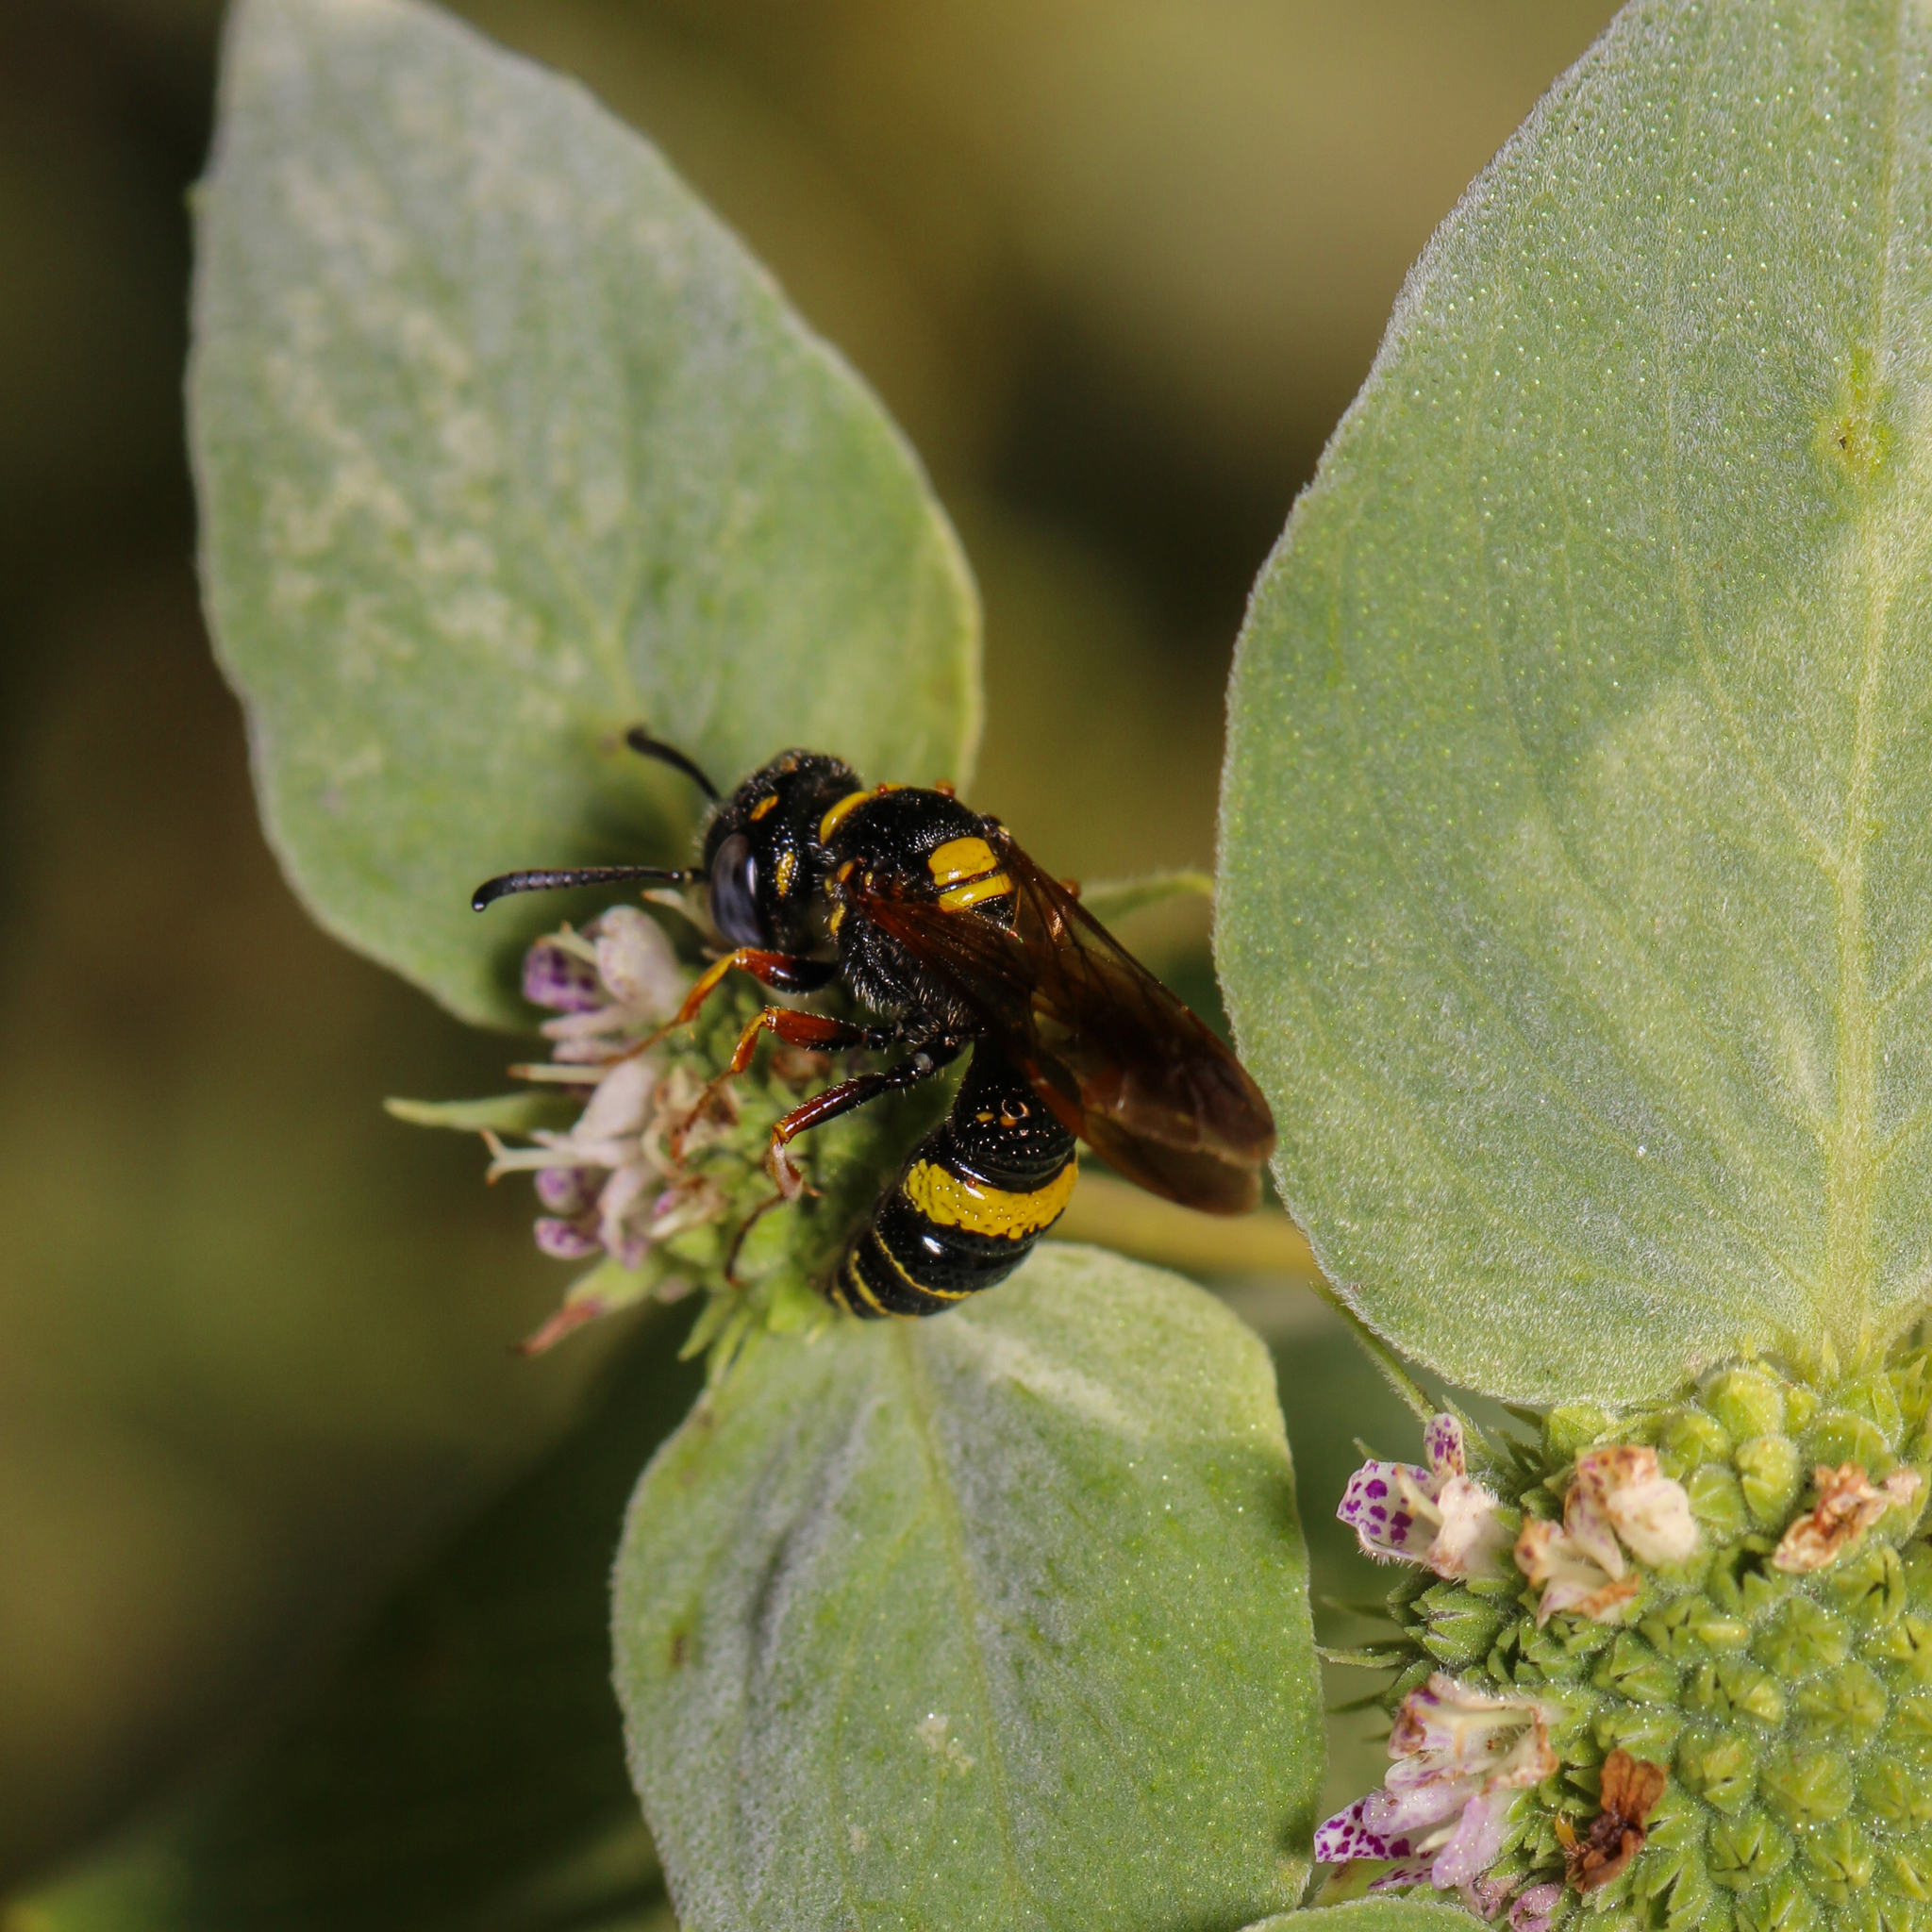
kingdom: Animalia
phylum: Arthropoda
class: Insecta
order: Hymenoptera
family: Crabronidae
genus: Philanthus
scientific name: Philanthus gibbosus
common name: Humped beewolf
